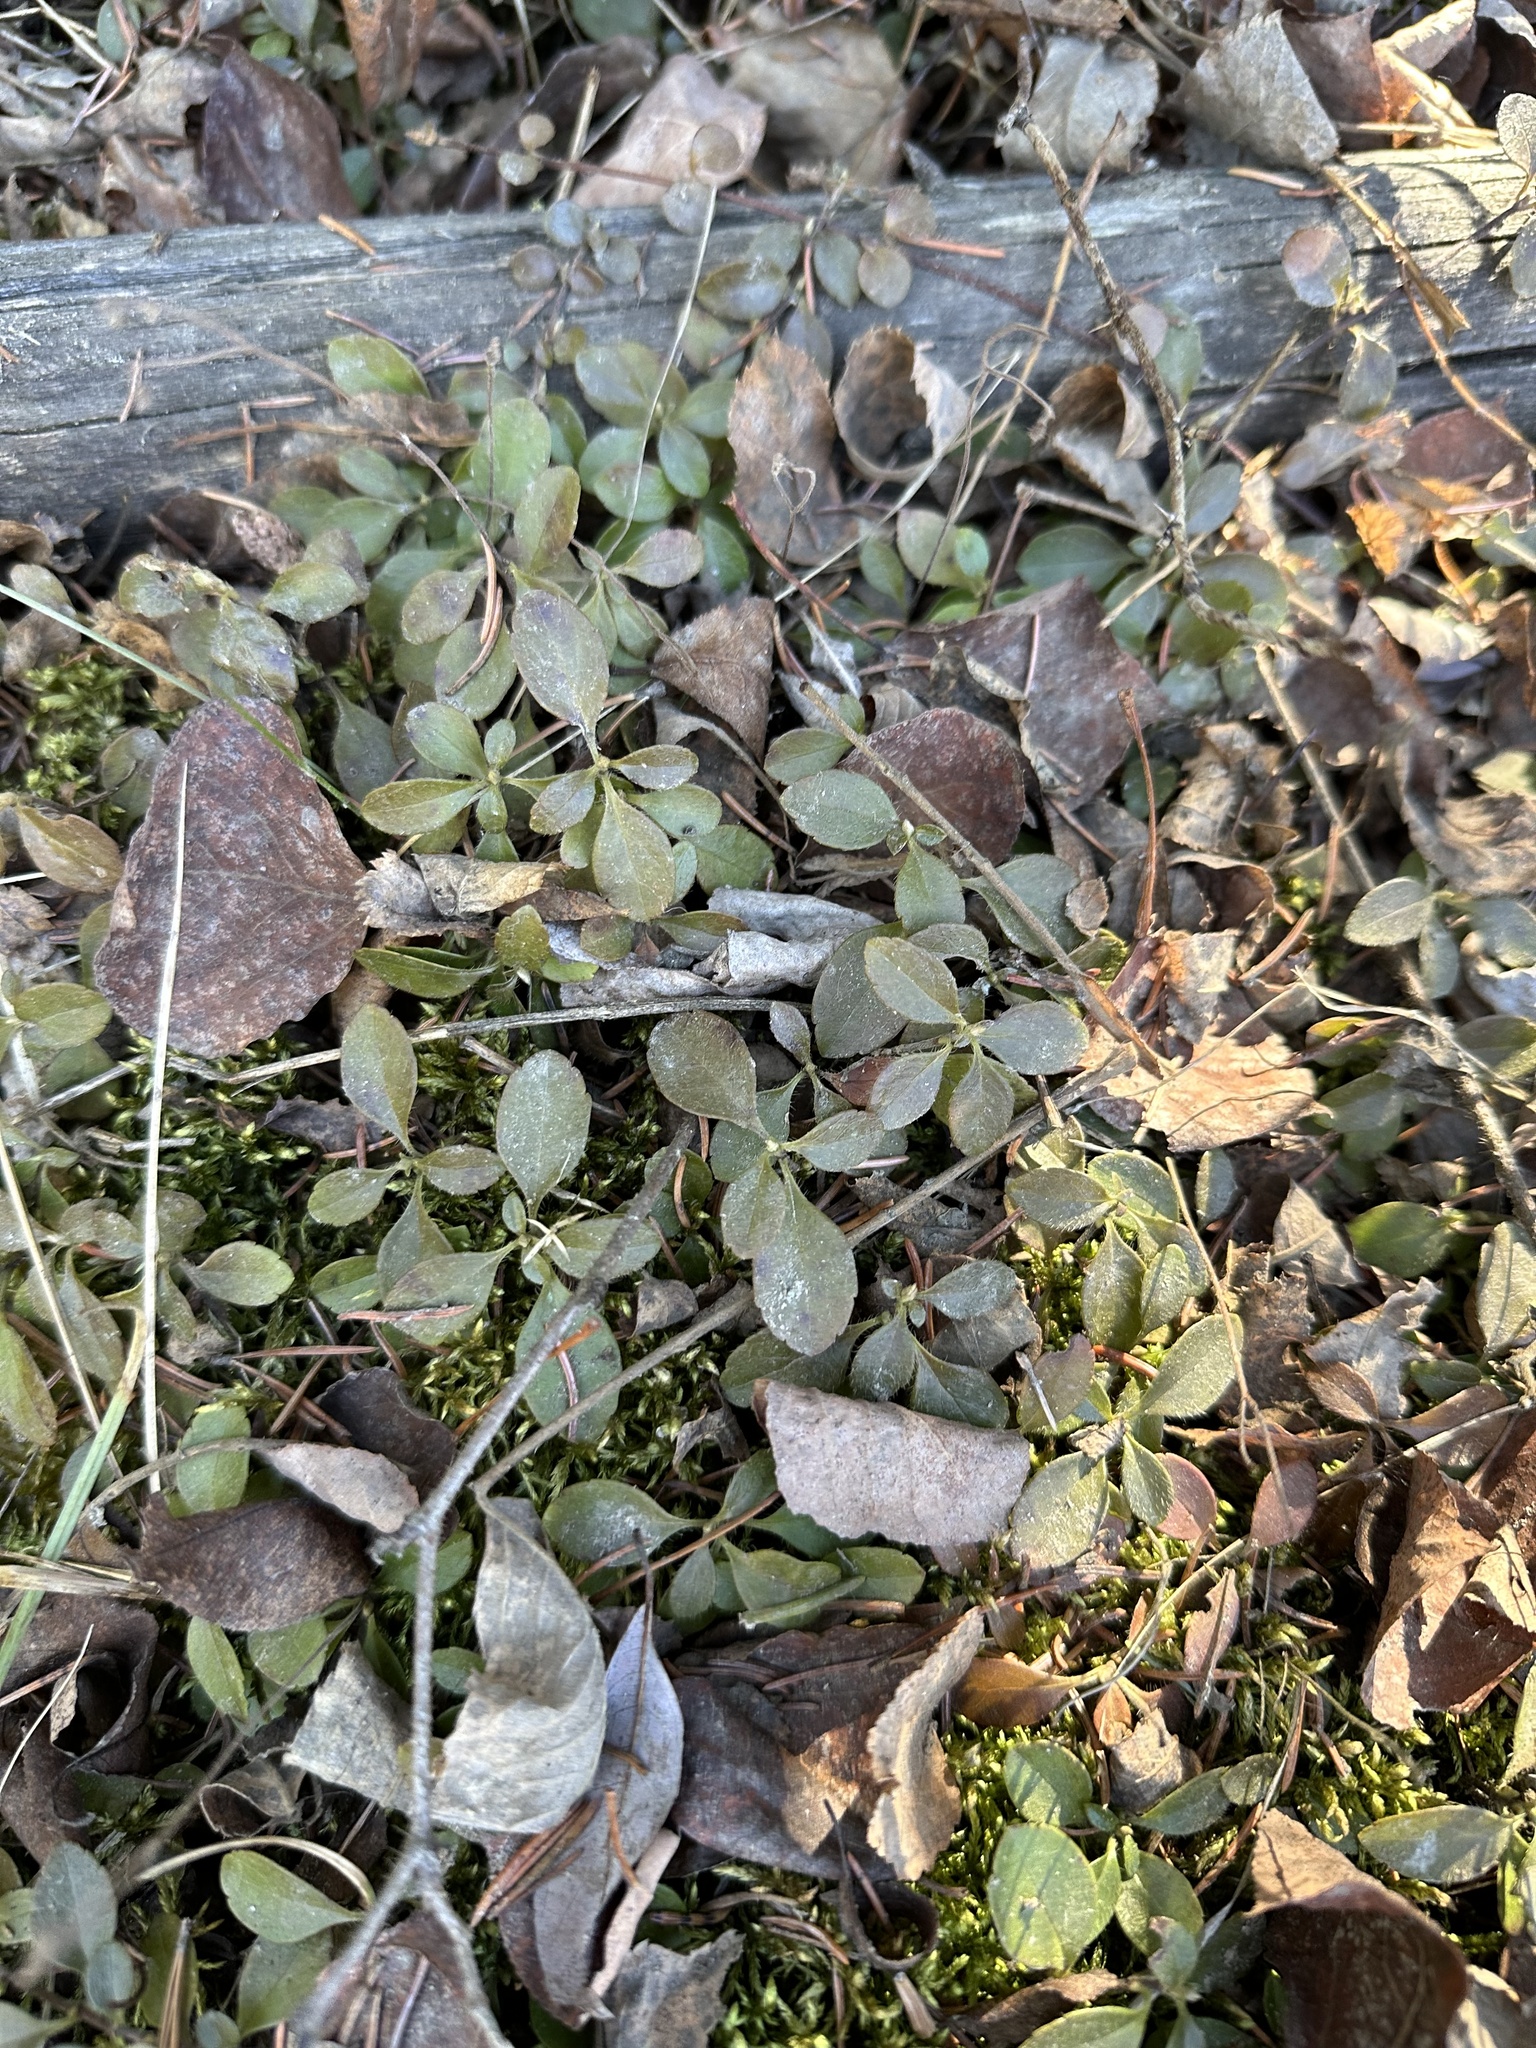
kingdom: Plantae
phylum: Tracheophyta
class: Magnoliopsida
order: Dipsacales
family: Caprifoliaceae
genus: Linnaea
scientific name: Linnaea borealis
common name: Twinflower
